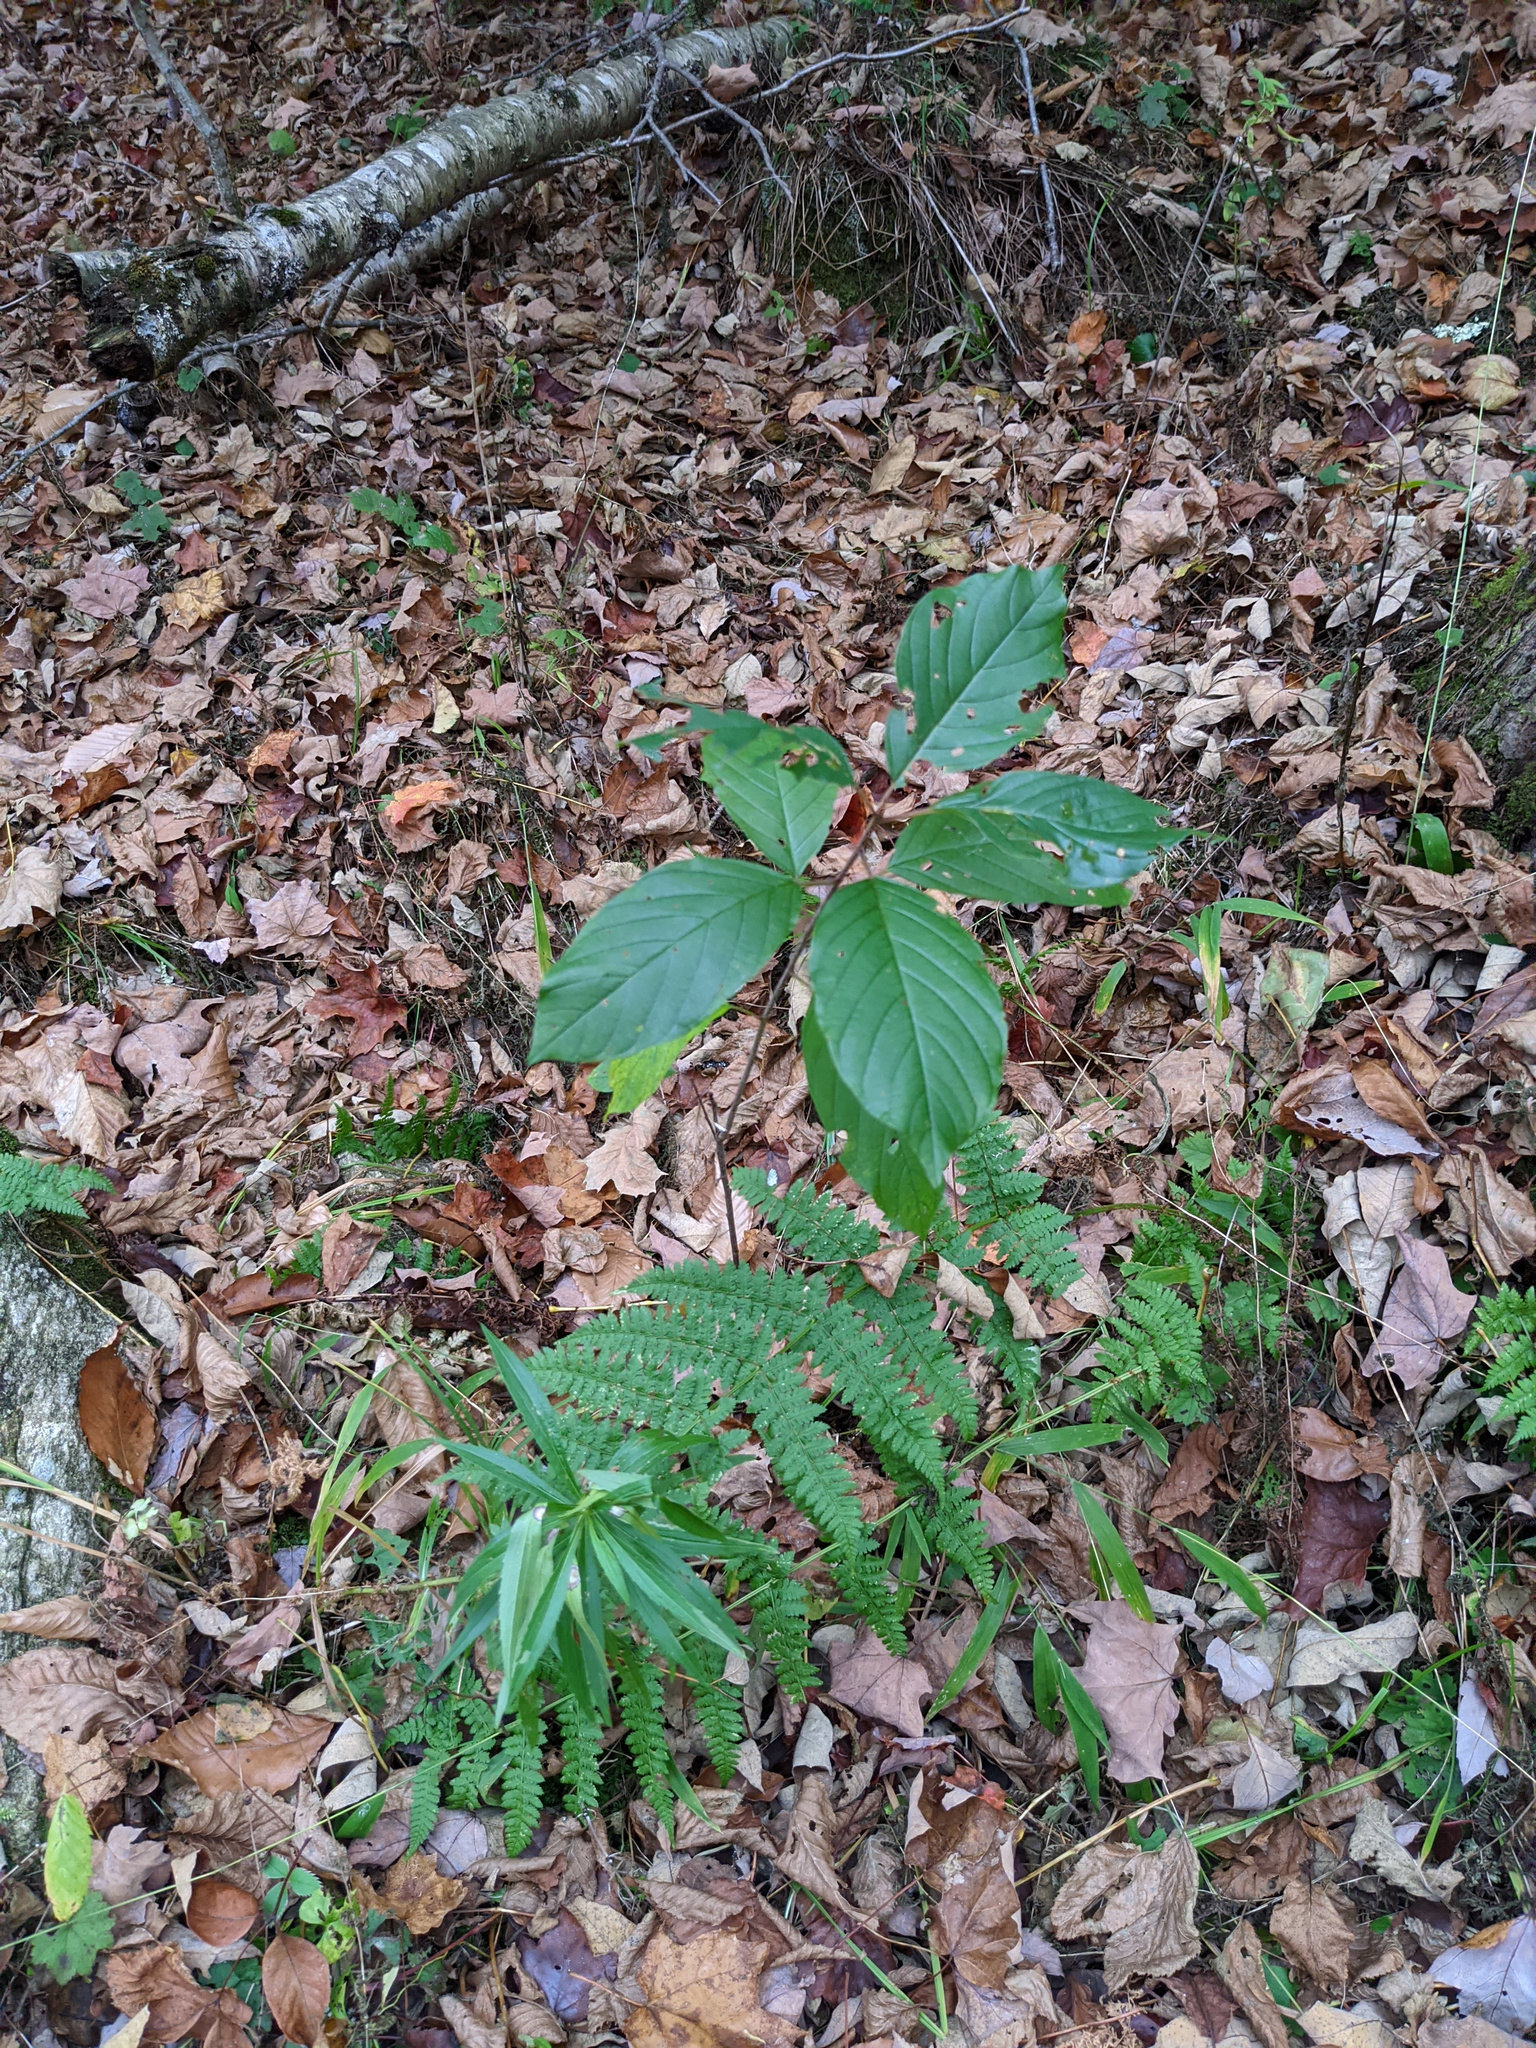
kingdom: Plantae
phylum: Tracheophyta
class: Magnoliopsida
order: Rosales
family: Rhamnaceae
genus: Frangula
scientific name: Frangula alnus
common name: Alder buckthorn
